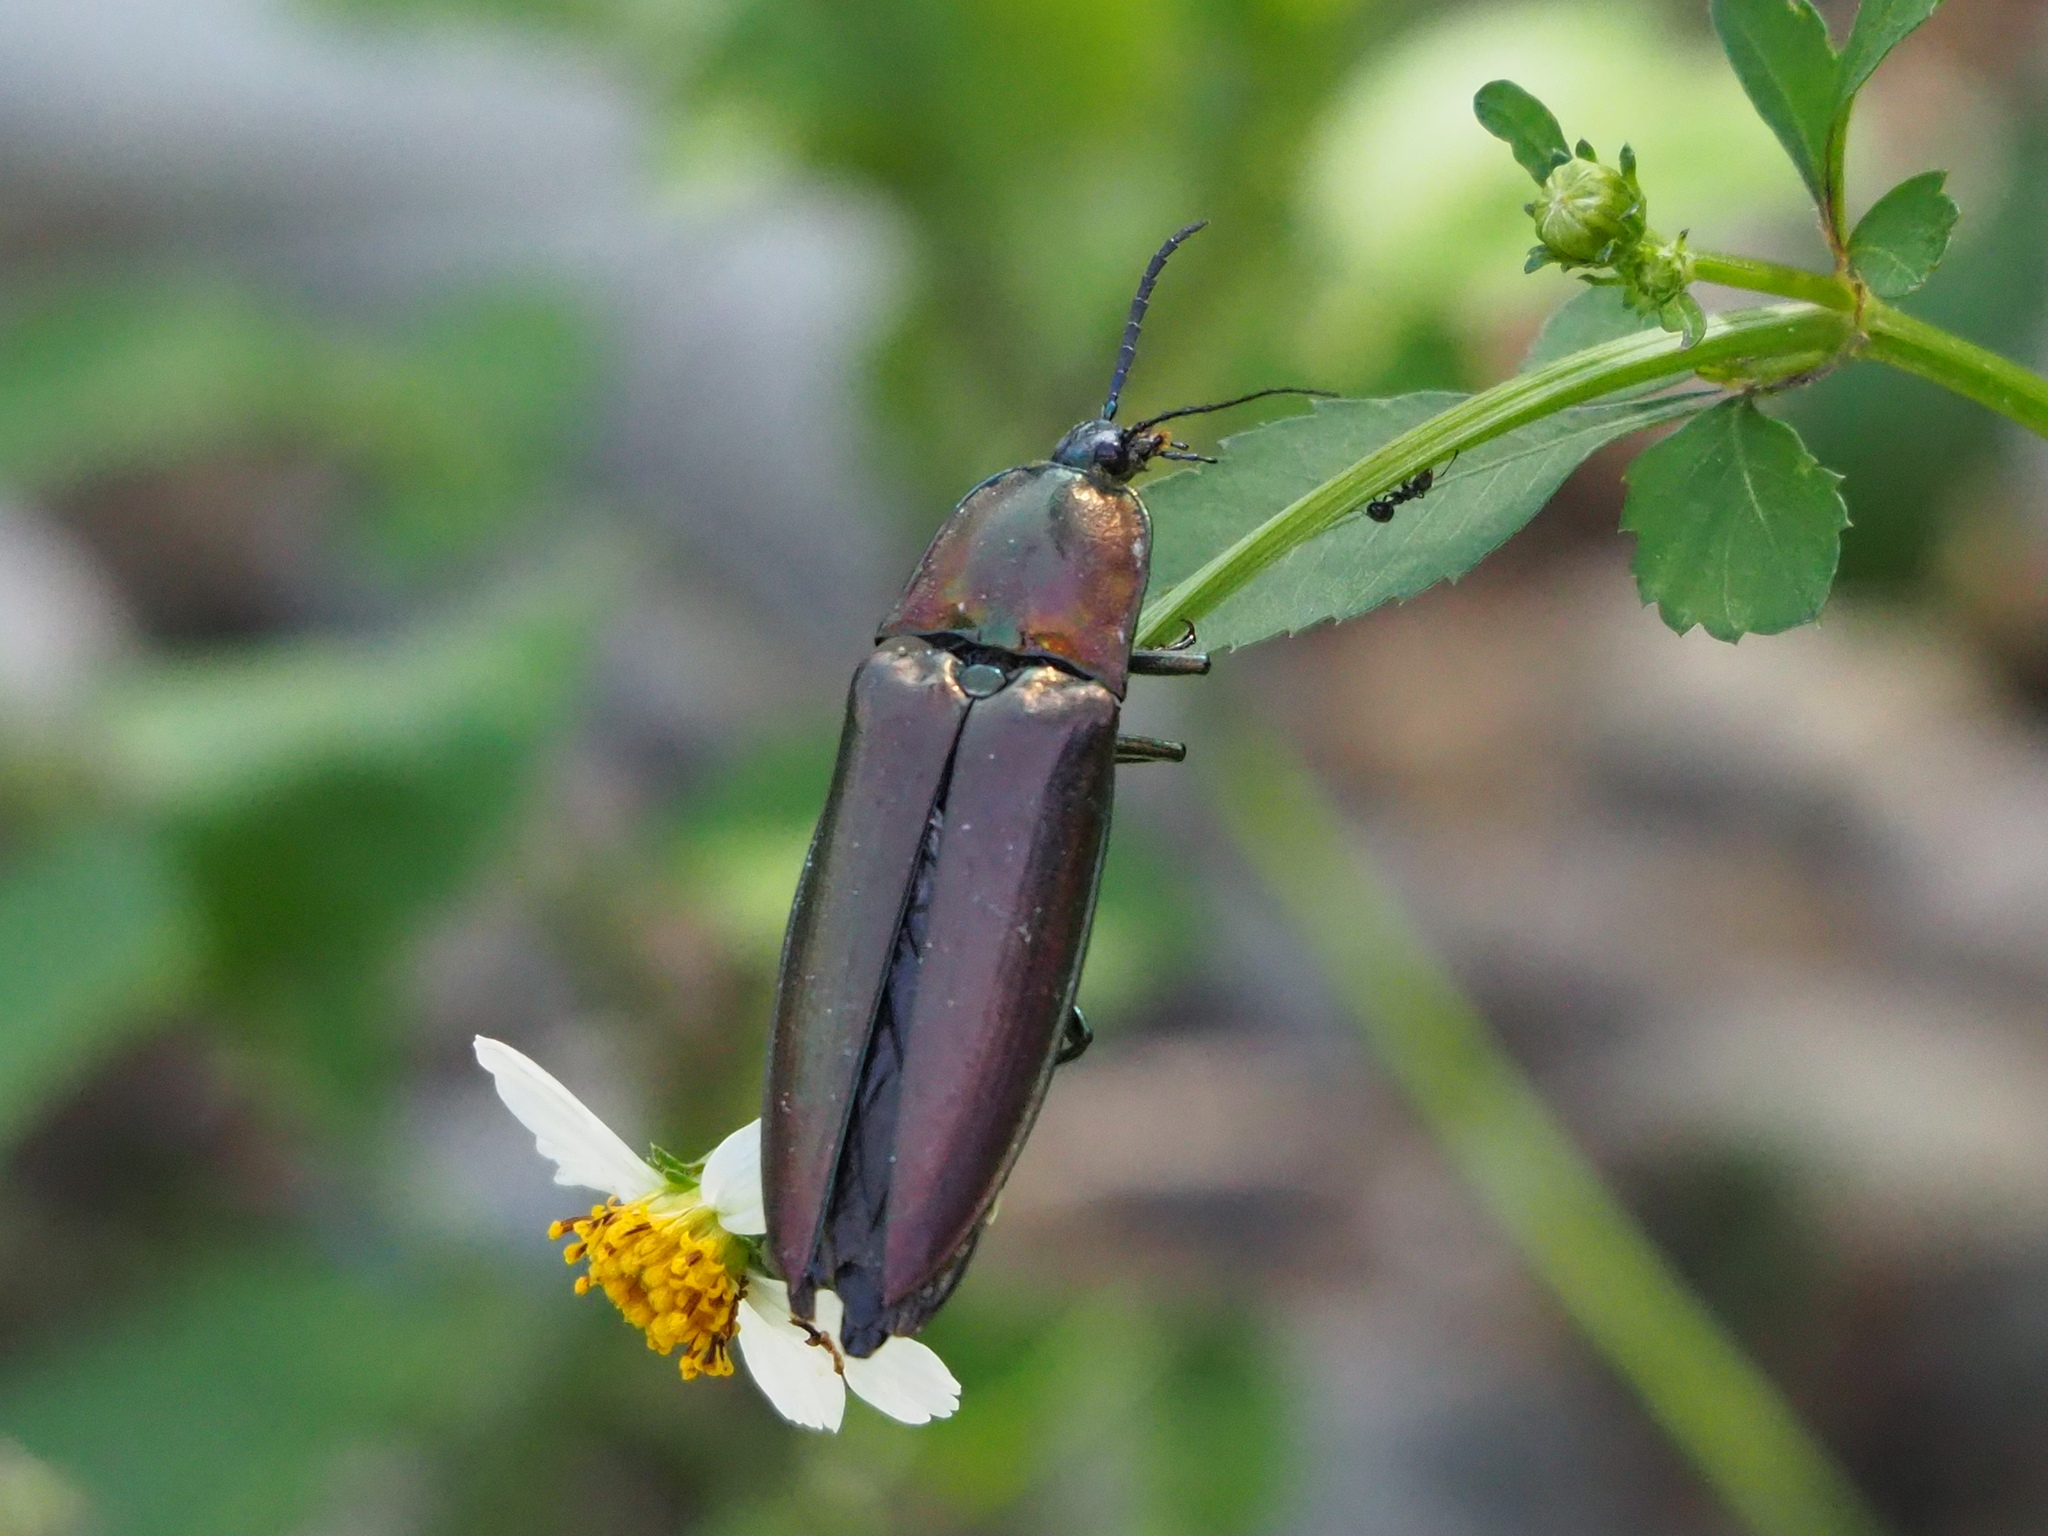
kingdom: Animalia
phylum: Arthropoda
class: Insecta
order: Coleoptera
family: Elateridae
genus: Campsosternus
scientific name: Campsosternus auratus
